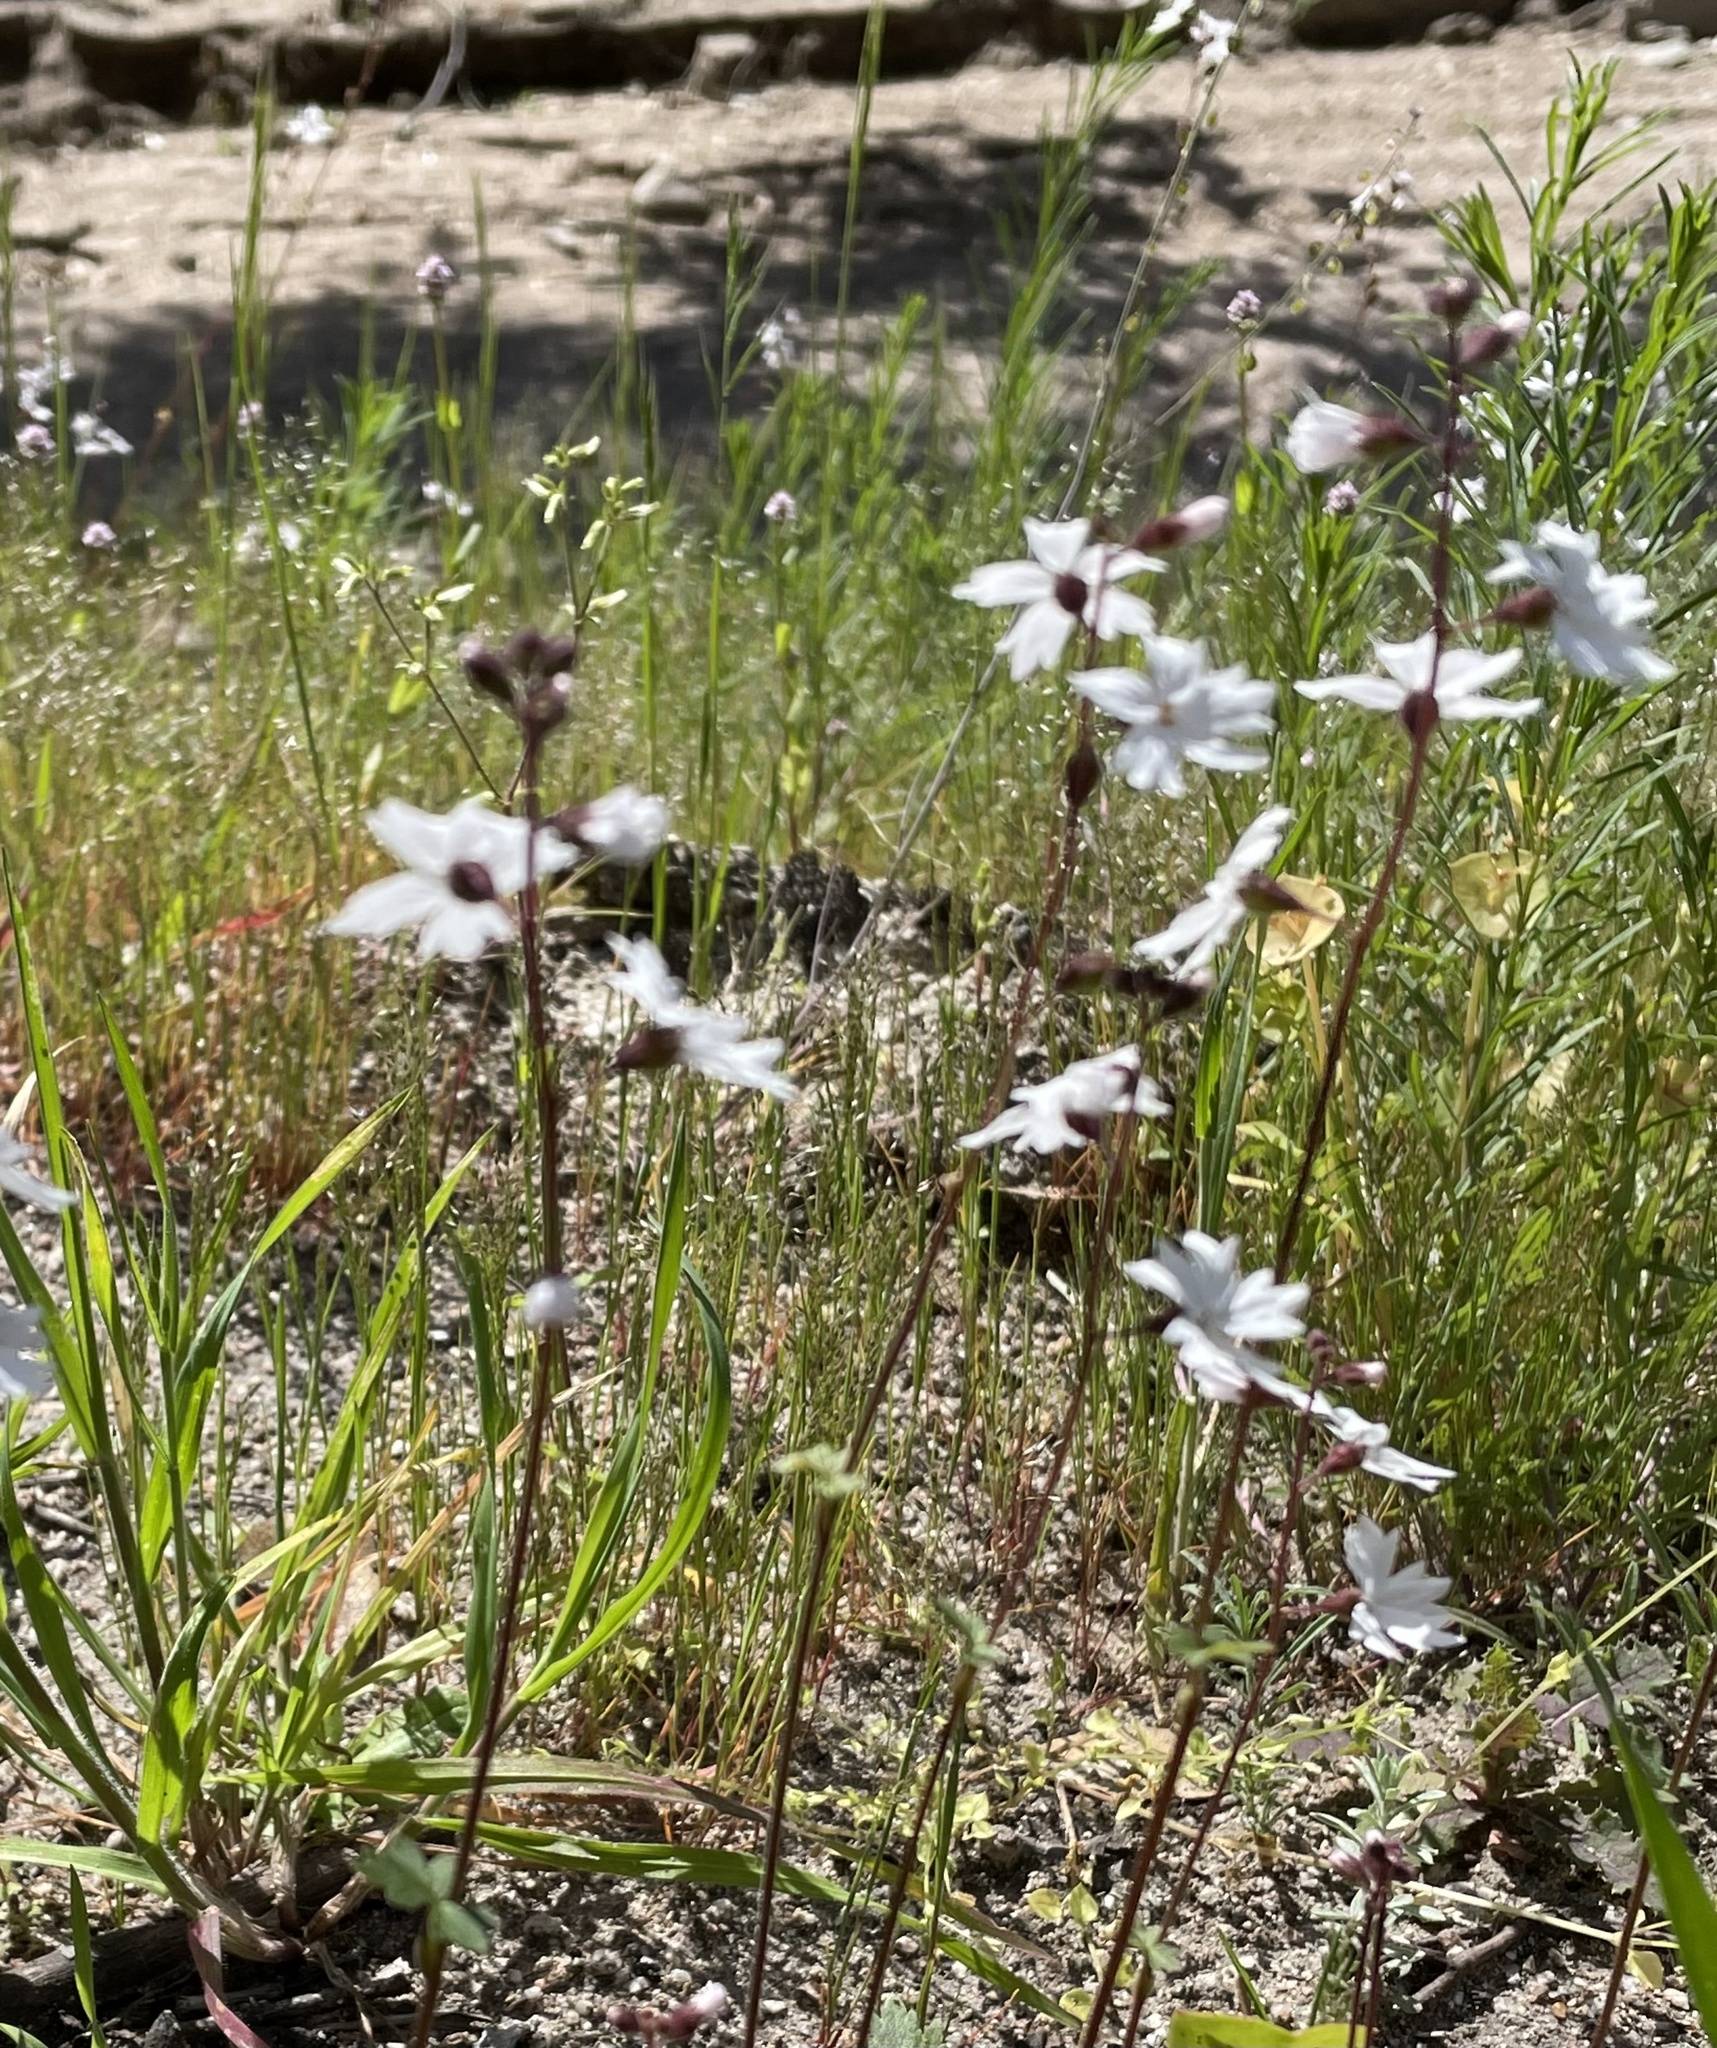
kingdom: Plantae
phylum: Tracheophyta
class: Magnoliopsida
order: Saxifragales
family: Saxifragaceae
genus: Lithophragma
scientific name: Lithophragma affine
